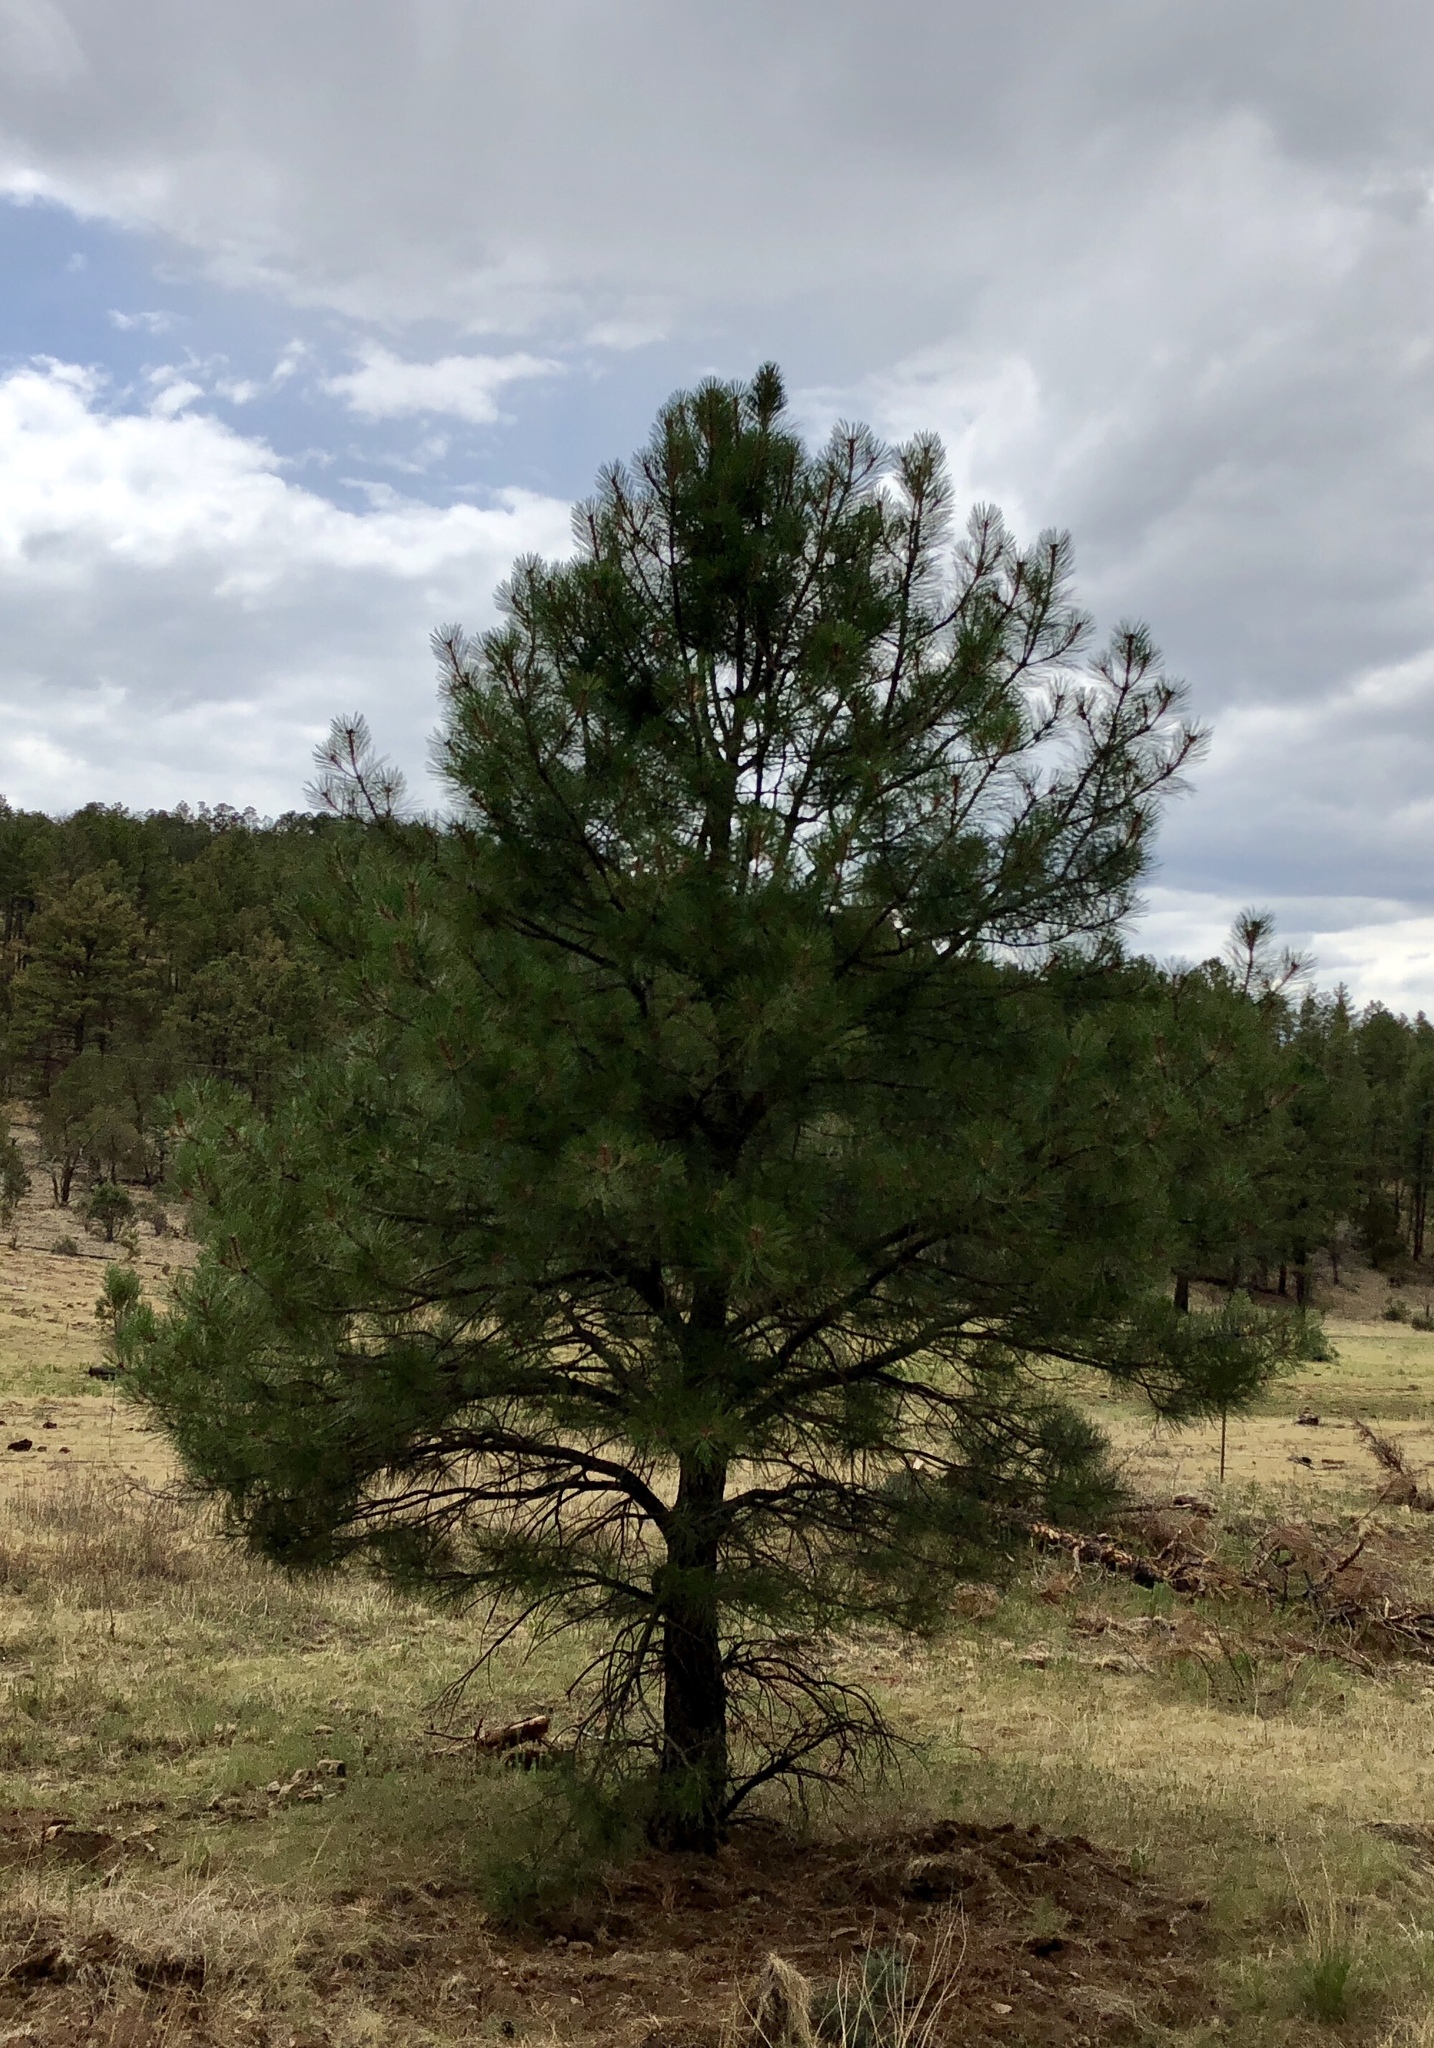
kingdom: Plantae
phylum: Tracheophyta
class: Pinopsida
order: Pinales
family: Pinaceae
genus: Pinus
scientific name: Pinus ponderosa
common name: Western yellow-pine
